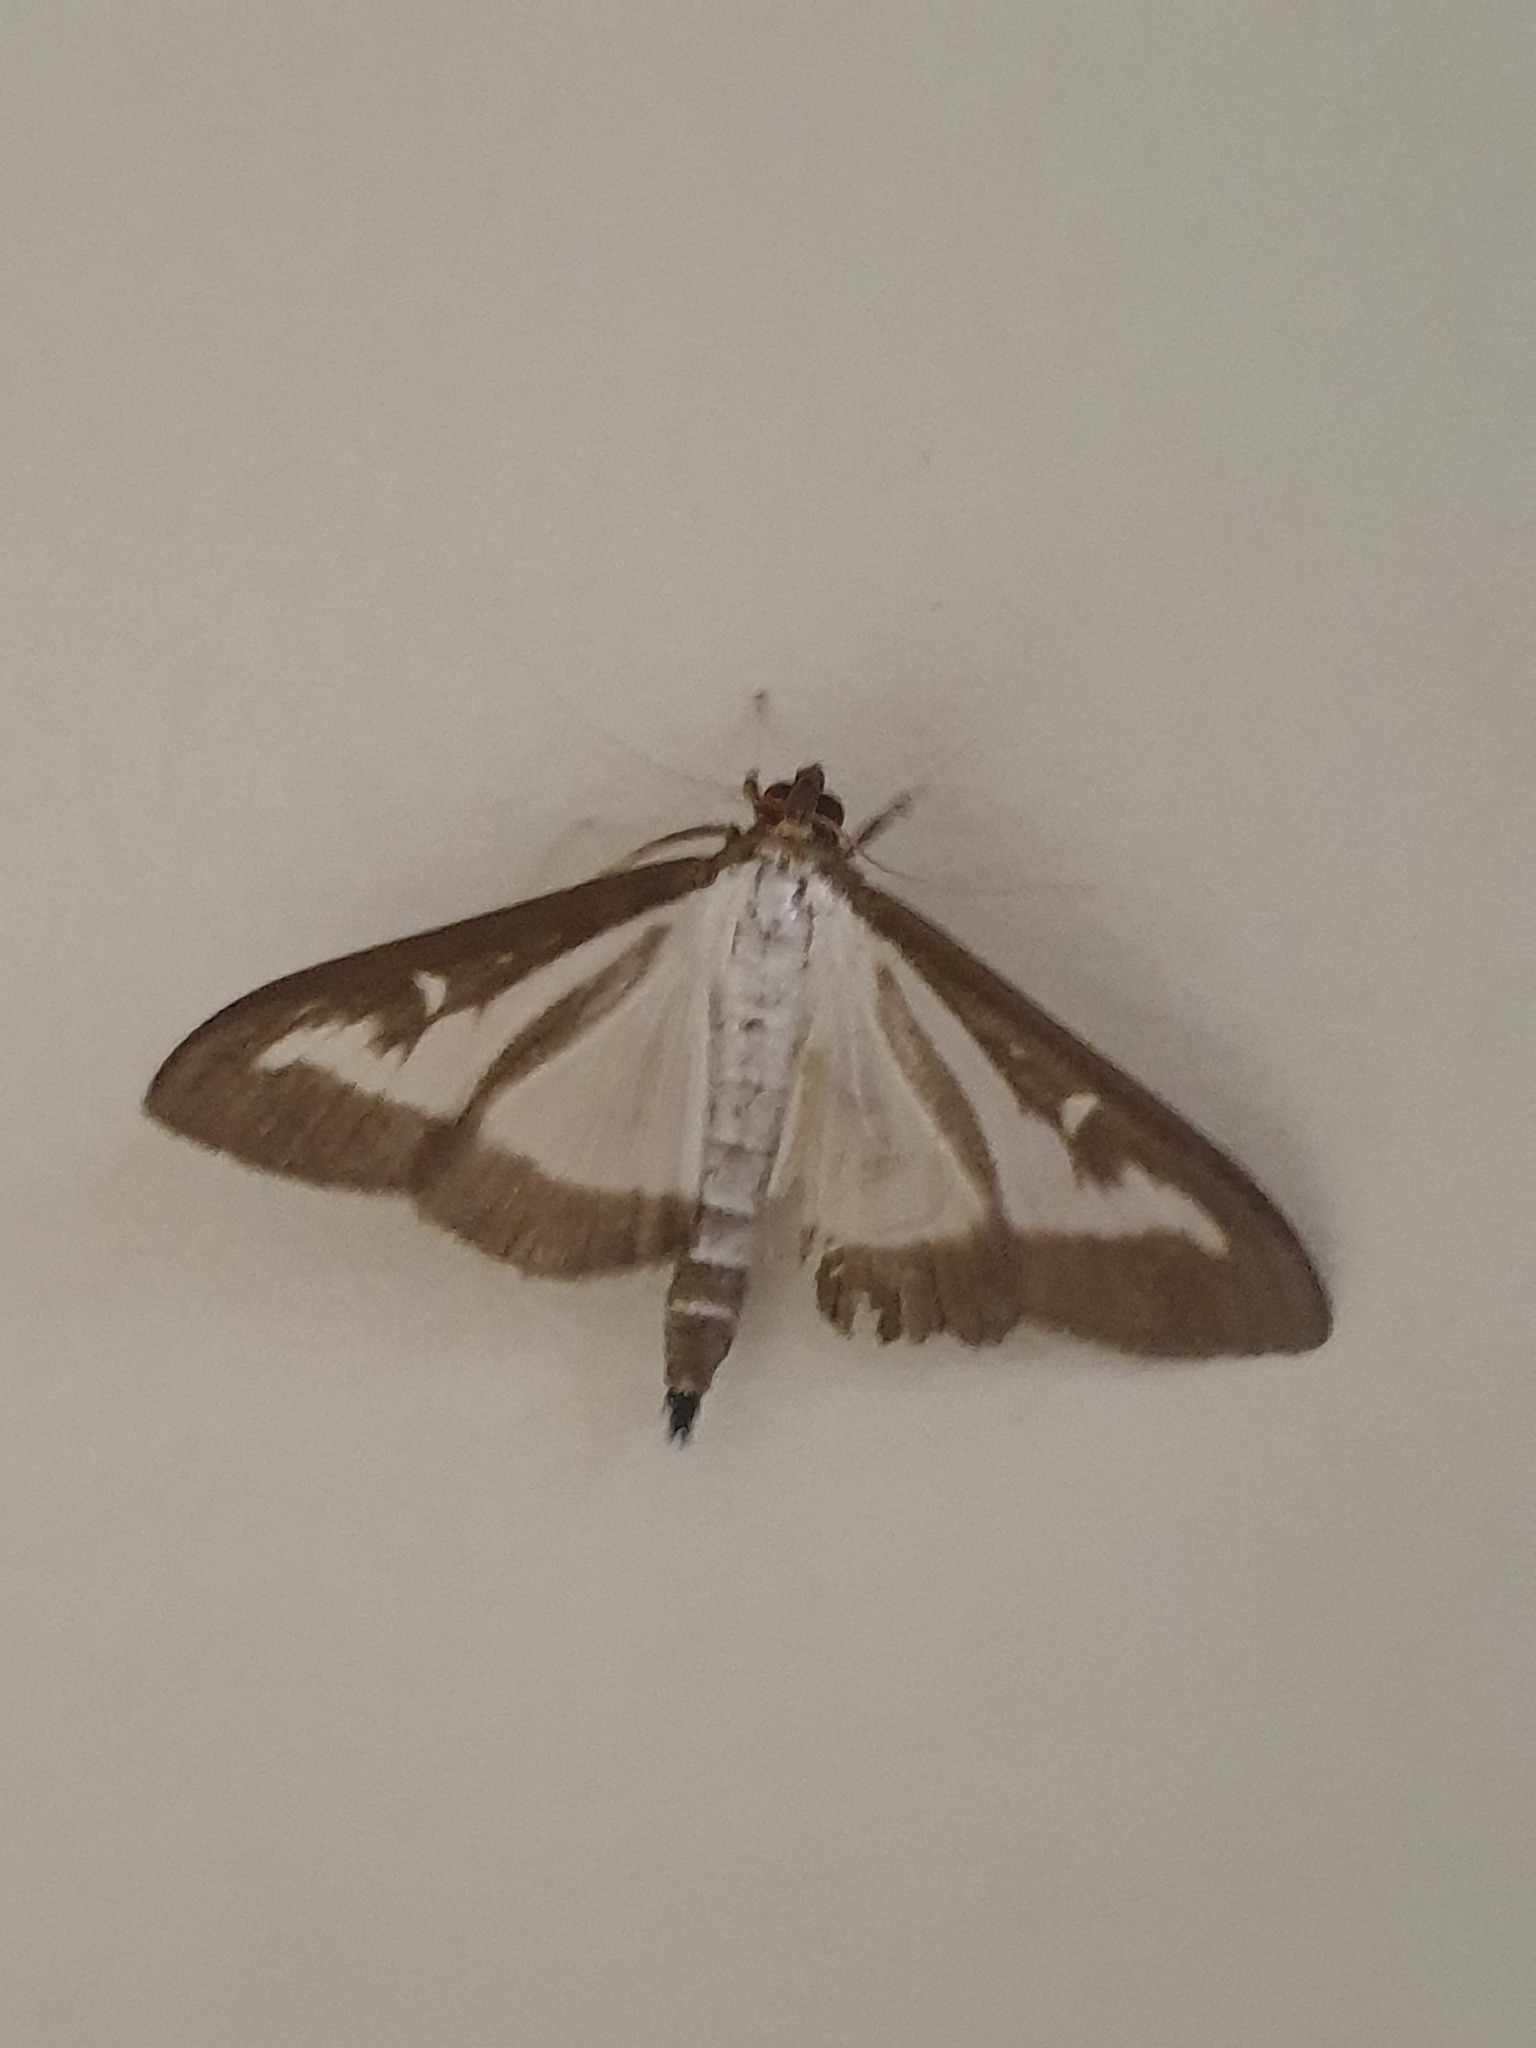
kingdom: Animalia
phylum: Arthropoda
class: Insecta
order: Lepidoptera
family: Crambidae
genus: Cydalima
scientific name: Cydalima perspectalis
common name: Box tree moth
